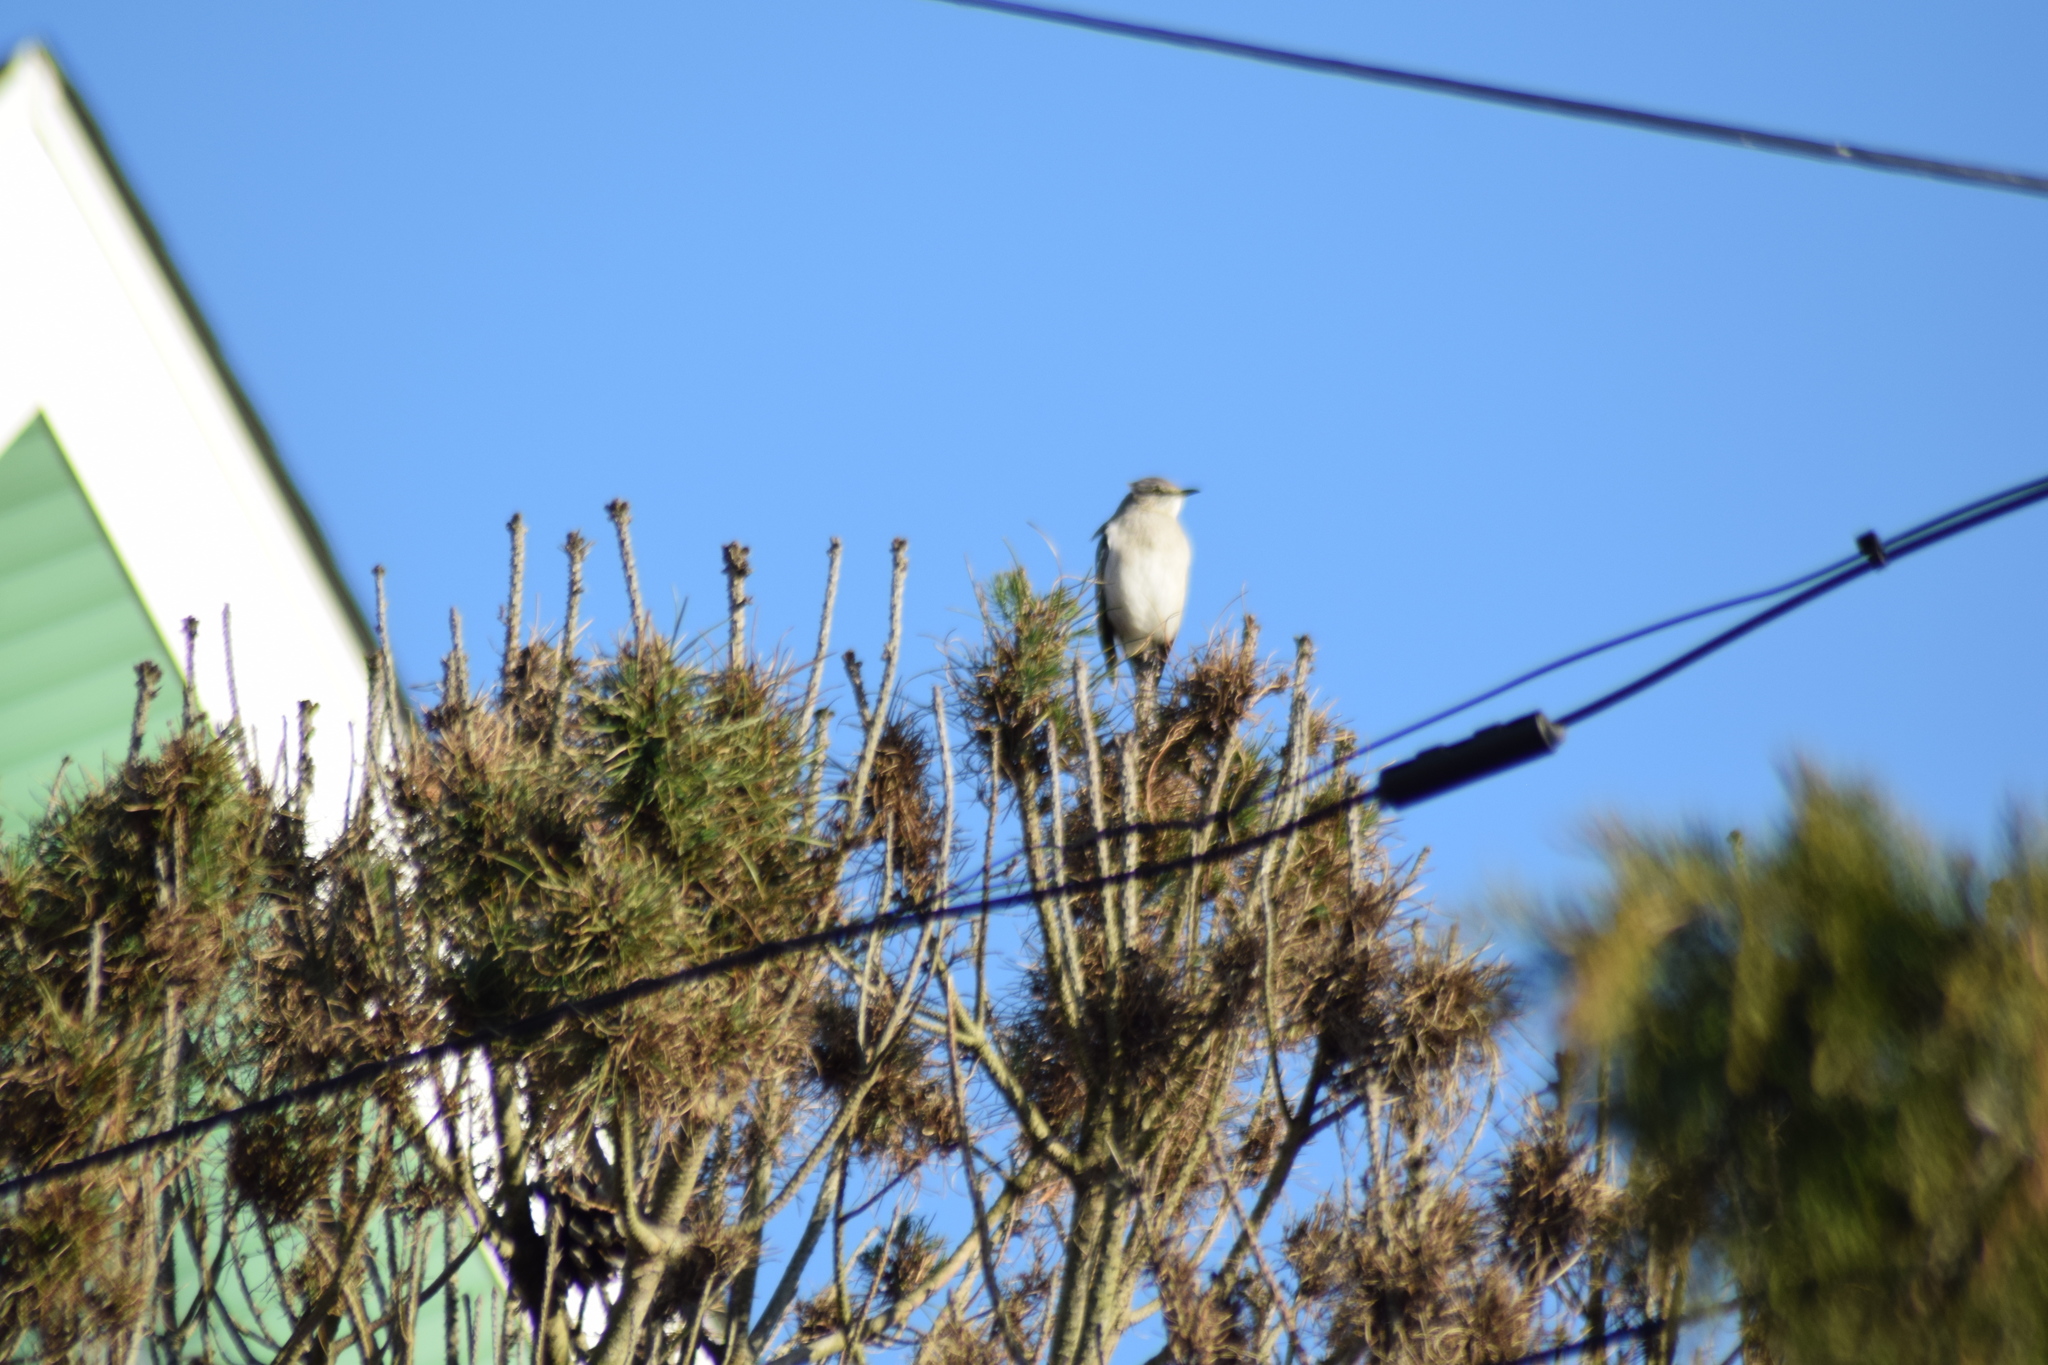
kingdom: Animalia
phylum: Chordata
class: Aves
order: Passeriformes
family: Mimidae
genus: Mimus
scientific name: Mimus polyglottos
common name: Northern mockingbird
